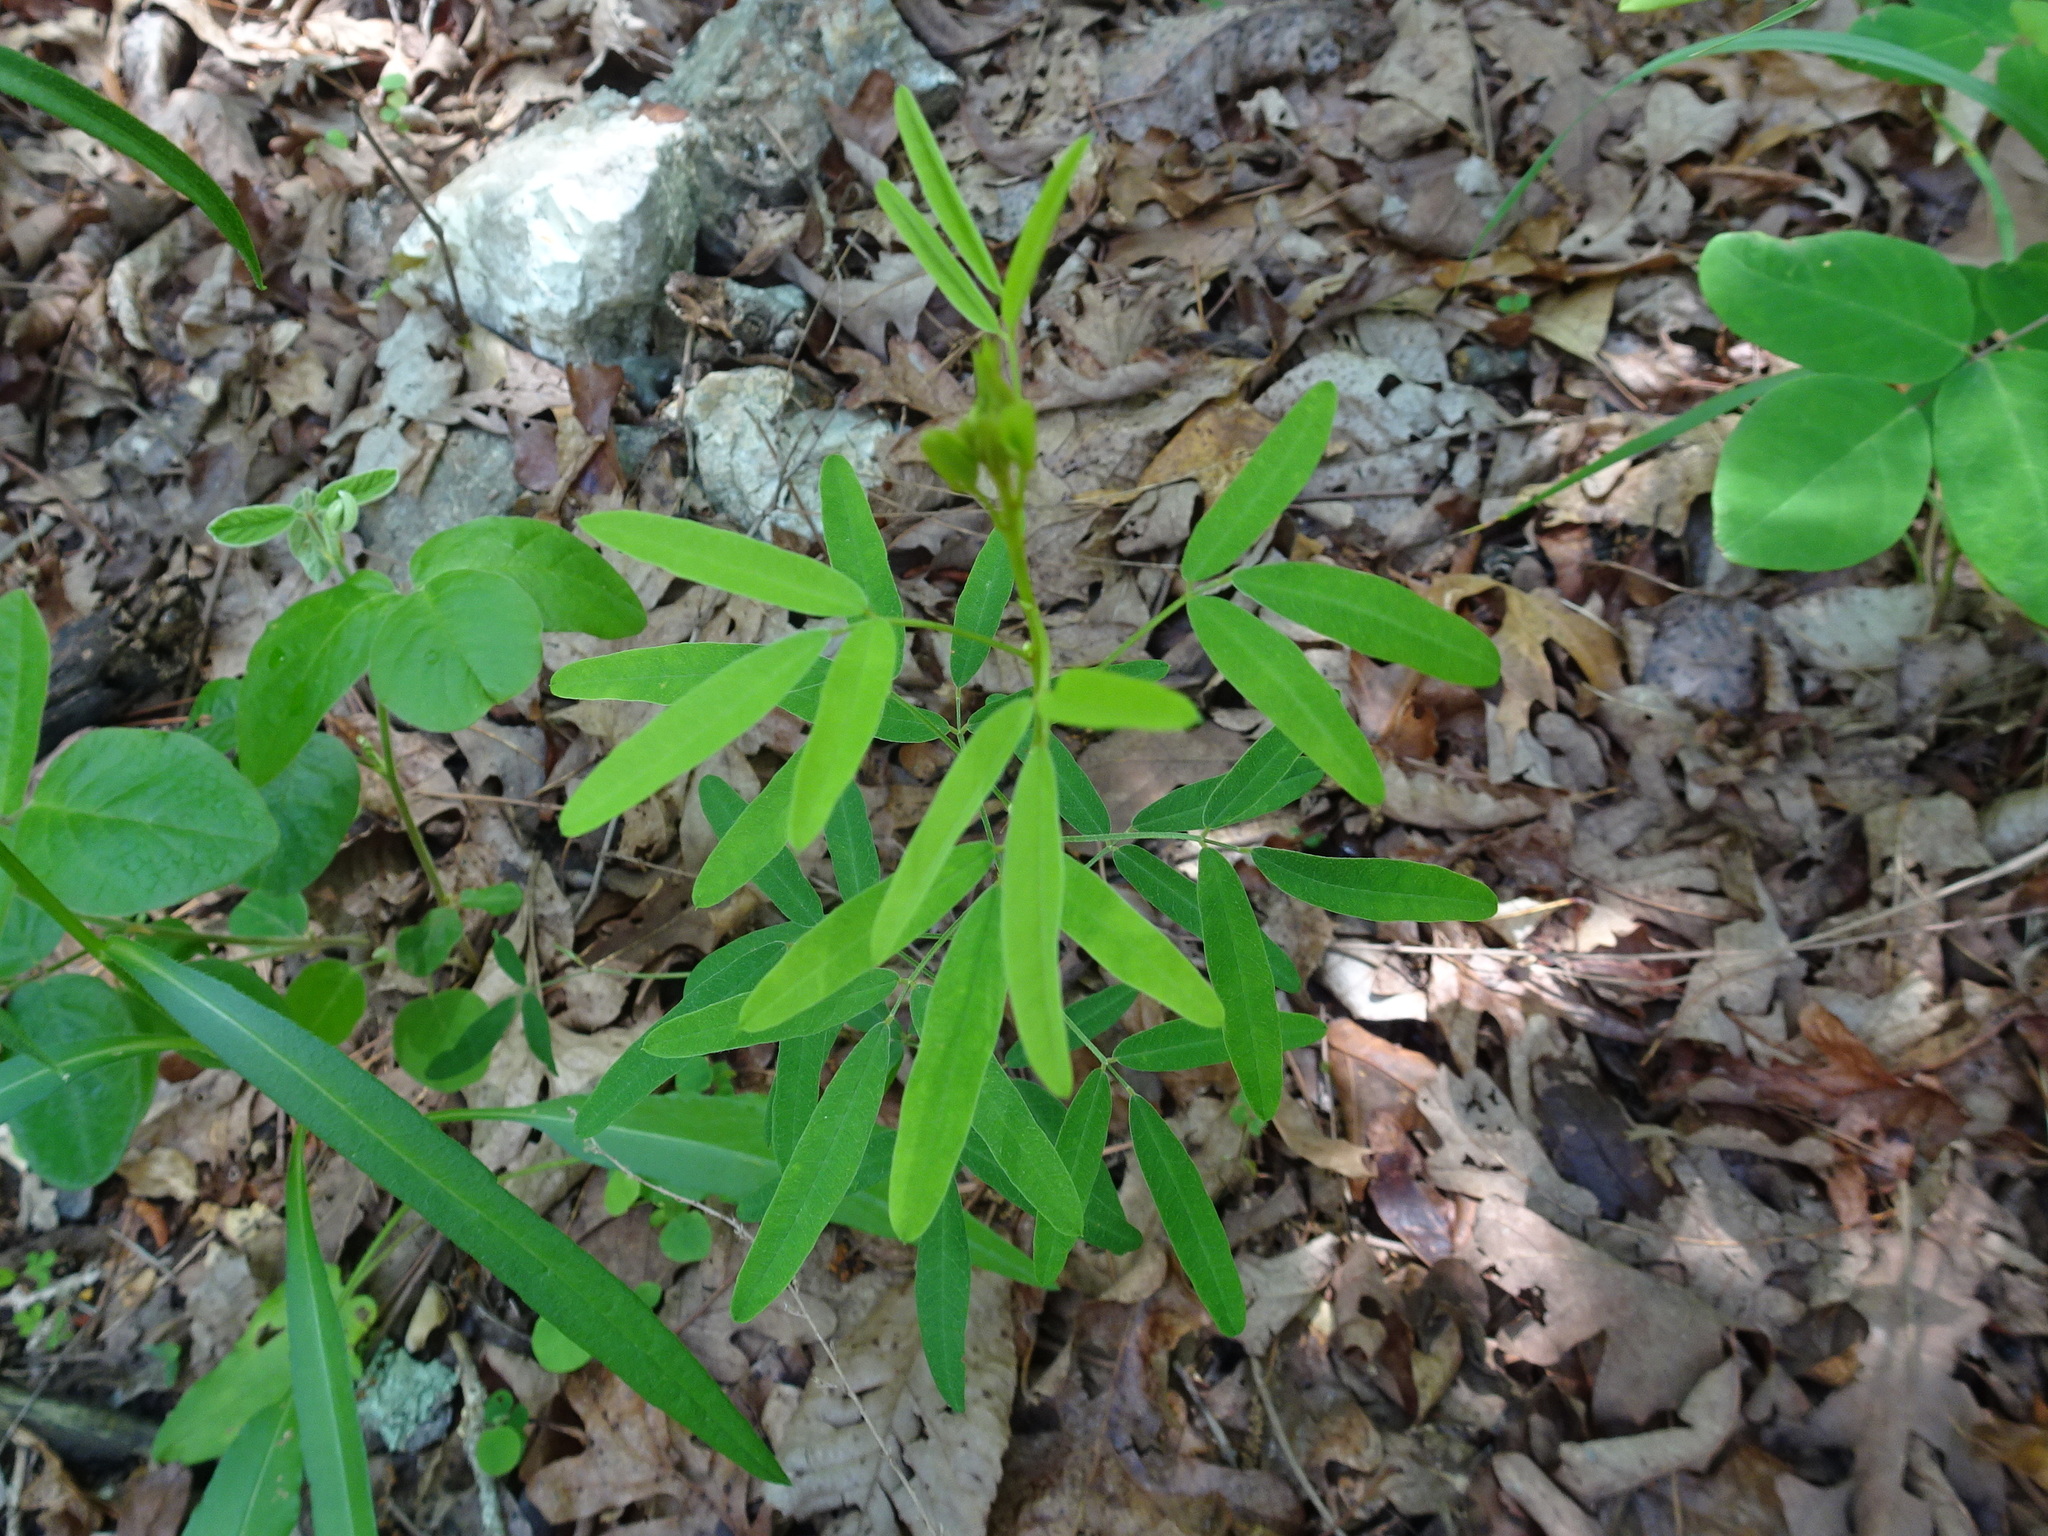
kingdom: Plantae
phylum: Tracheophyta
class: Magnoliopsida
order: Fabales
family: Fabaceae
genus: Lespedeza
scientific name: Lespedeza virginica
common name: Slender bush-clover
